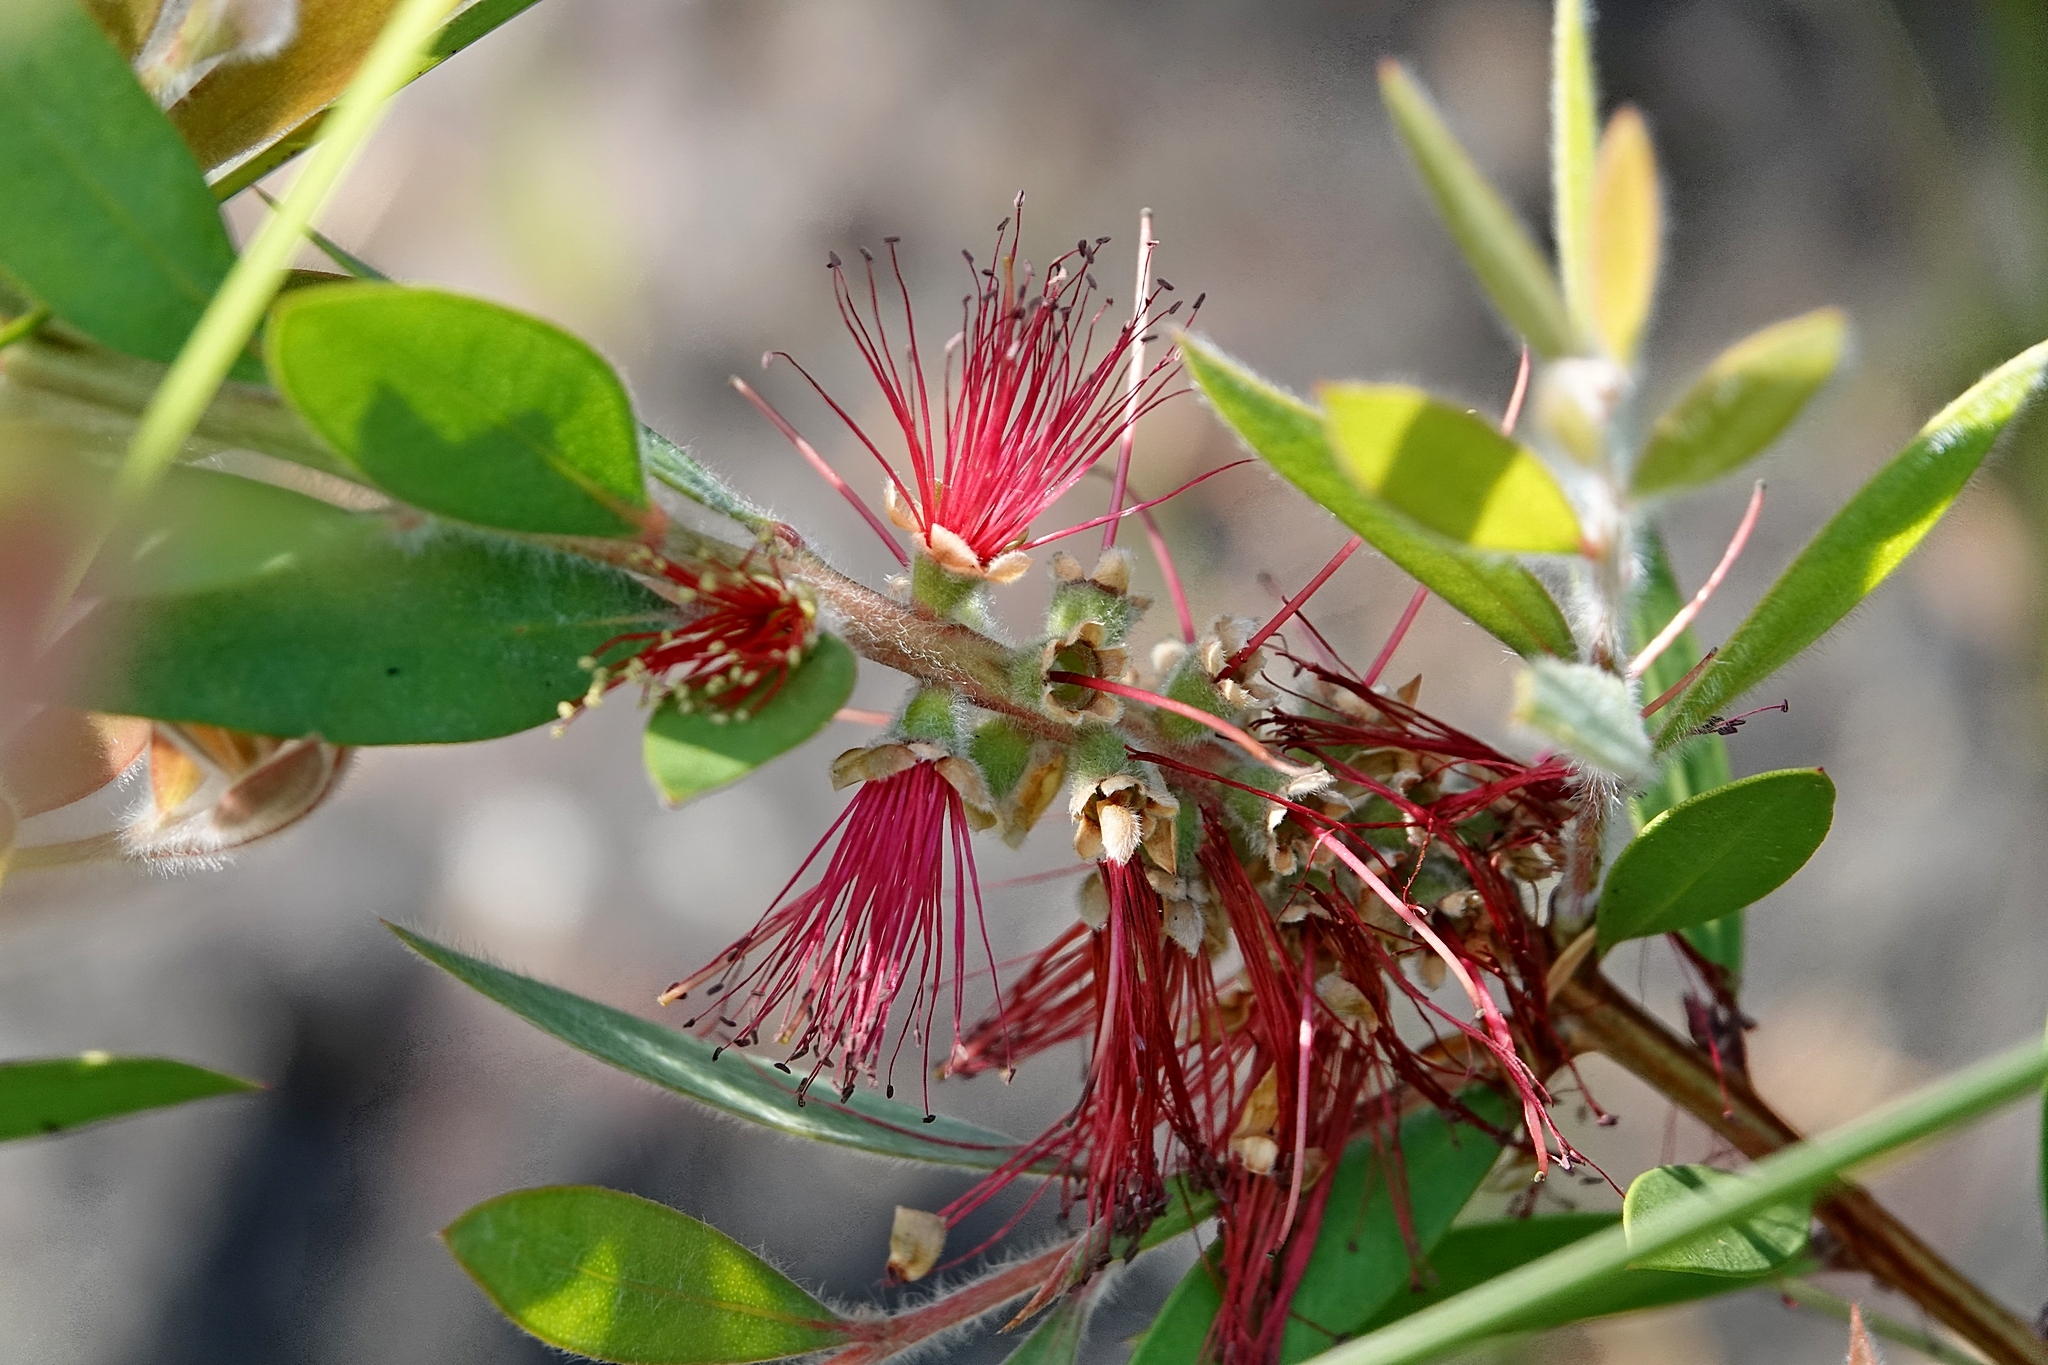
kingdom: Plantae
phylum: Tracheophyta
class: Magnoliopsida
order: Myrtales
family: Myrtaceae
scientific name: Myrtaceae
